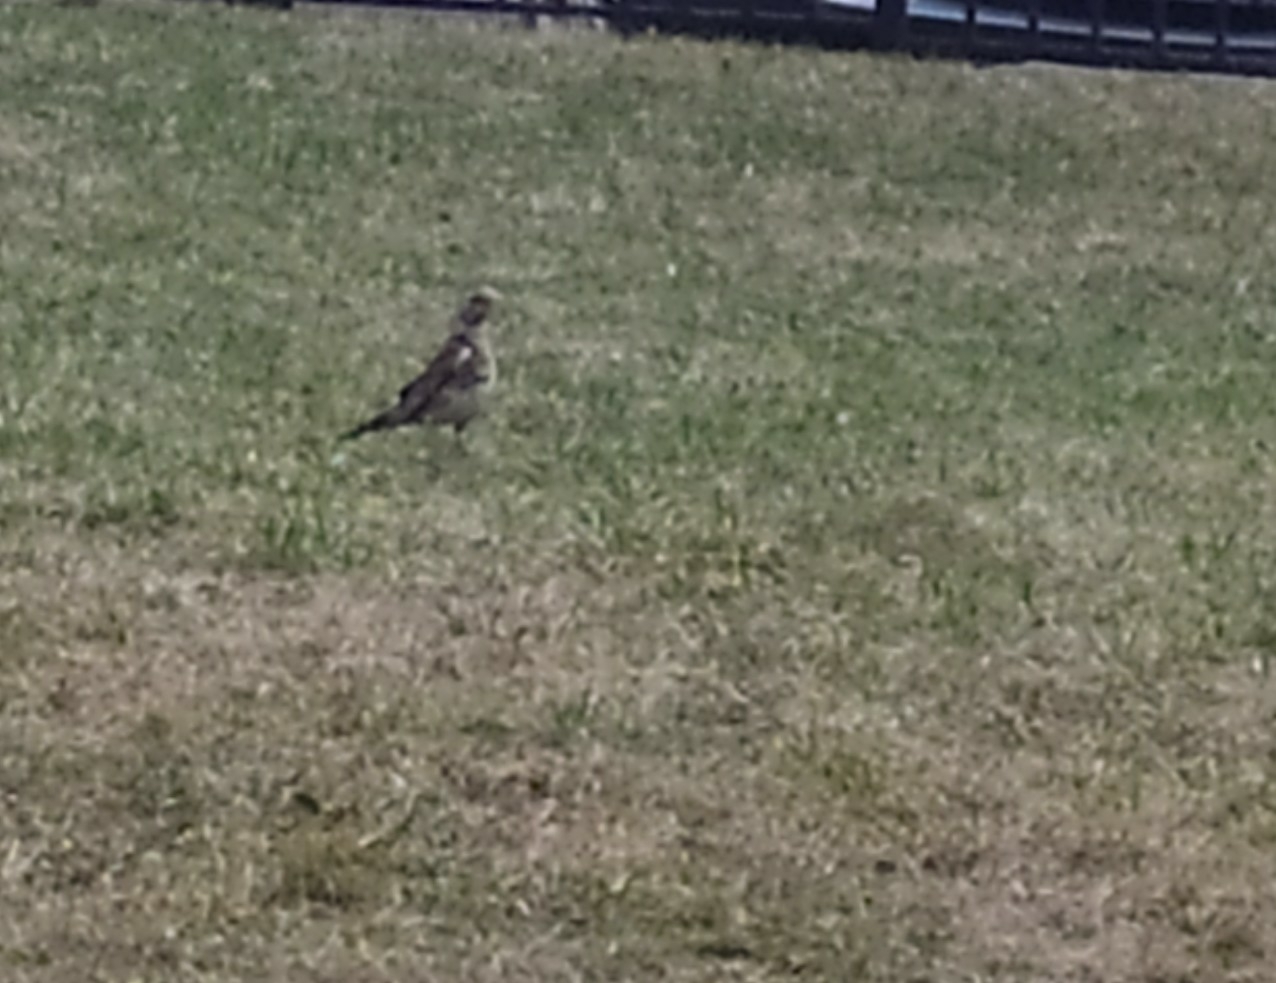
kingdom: Animalia
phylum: Chordata
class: Aves
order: Passeriformes
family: Turdidae
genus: Turdus
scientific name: Turdus pilaris
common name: Fieldfare
